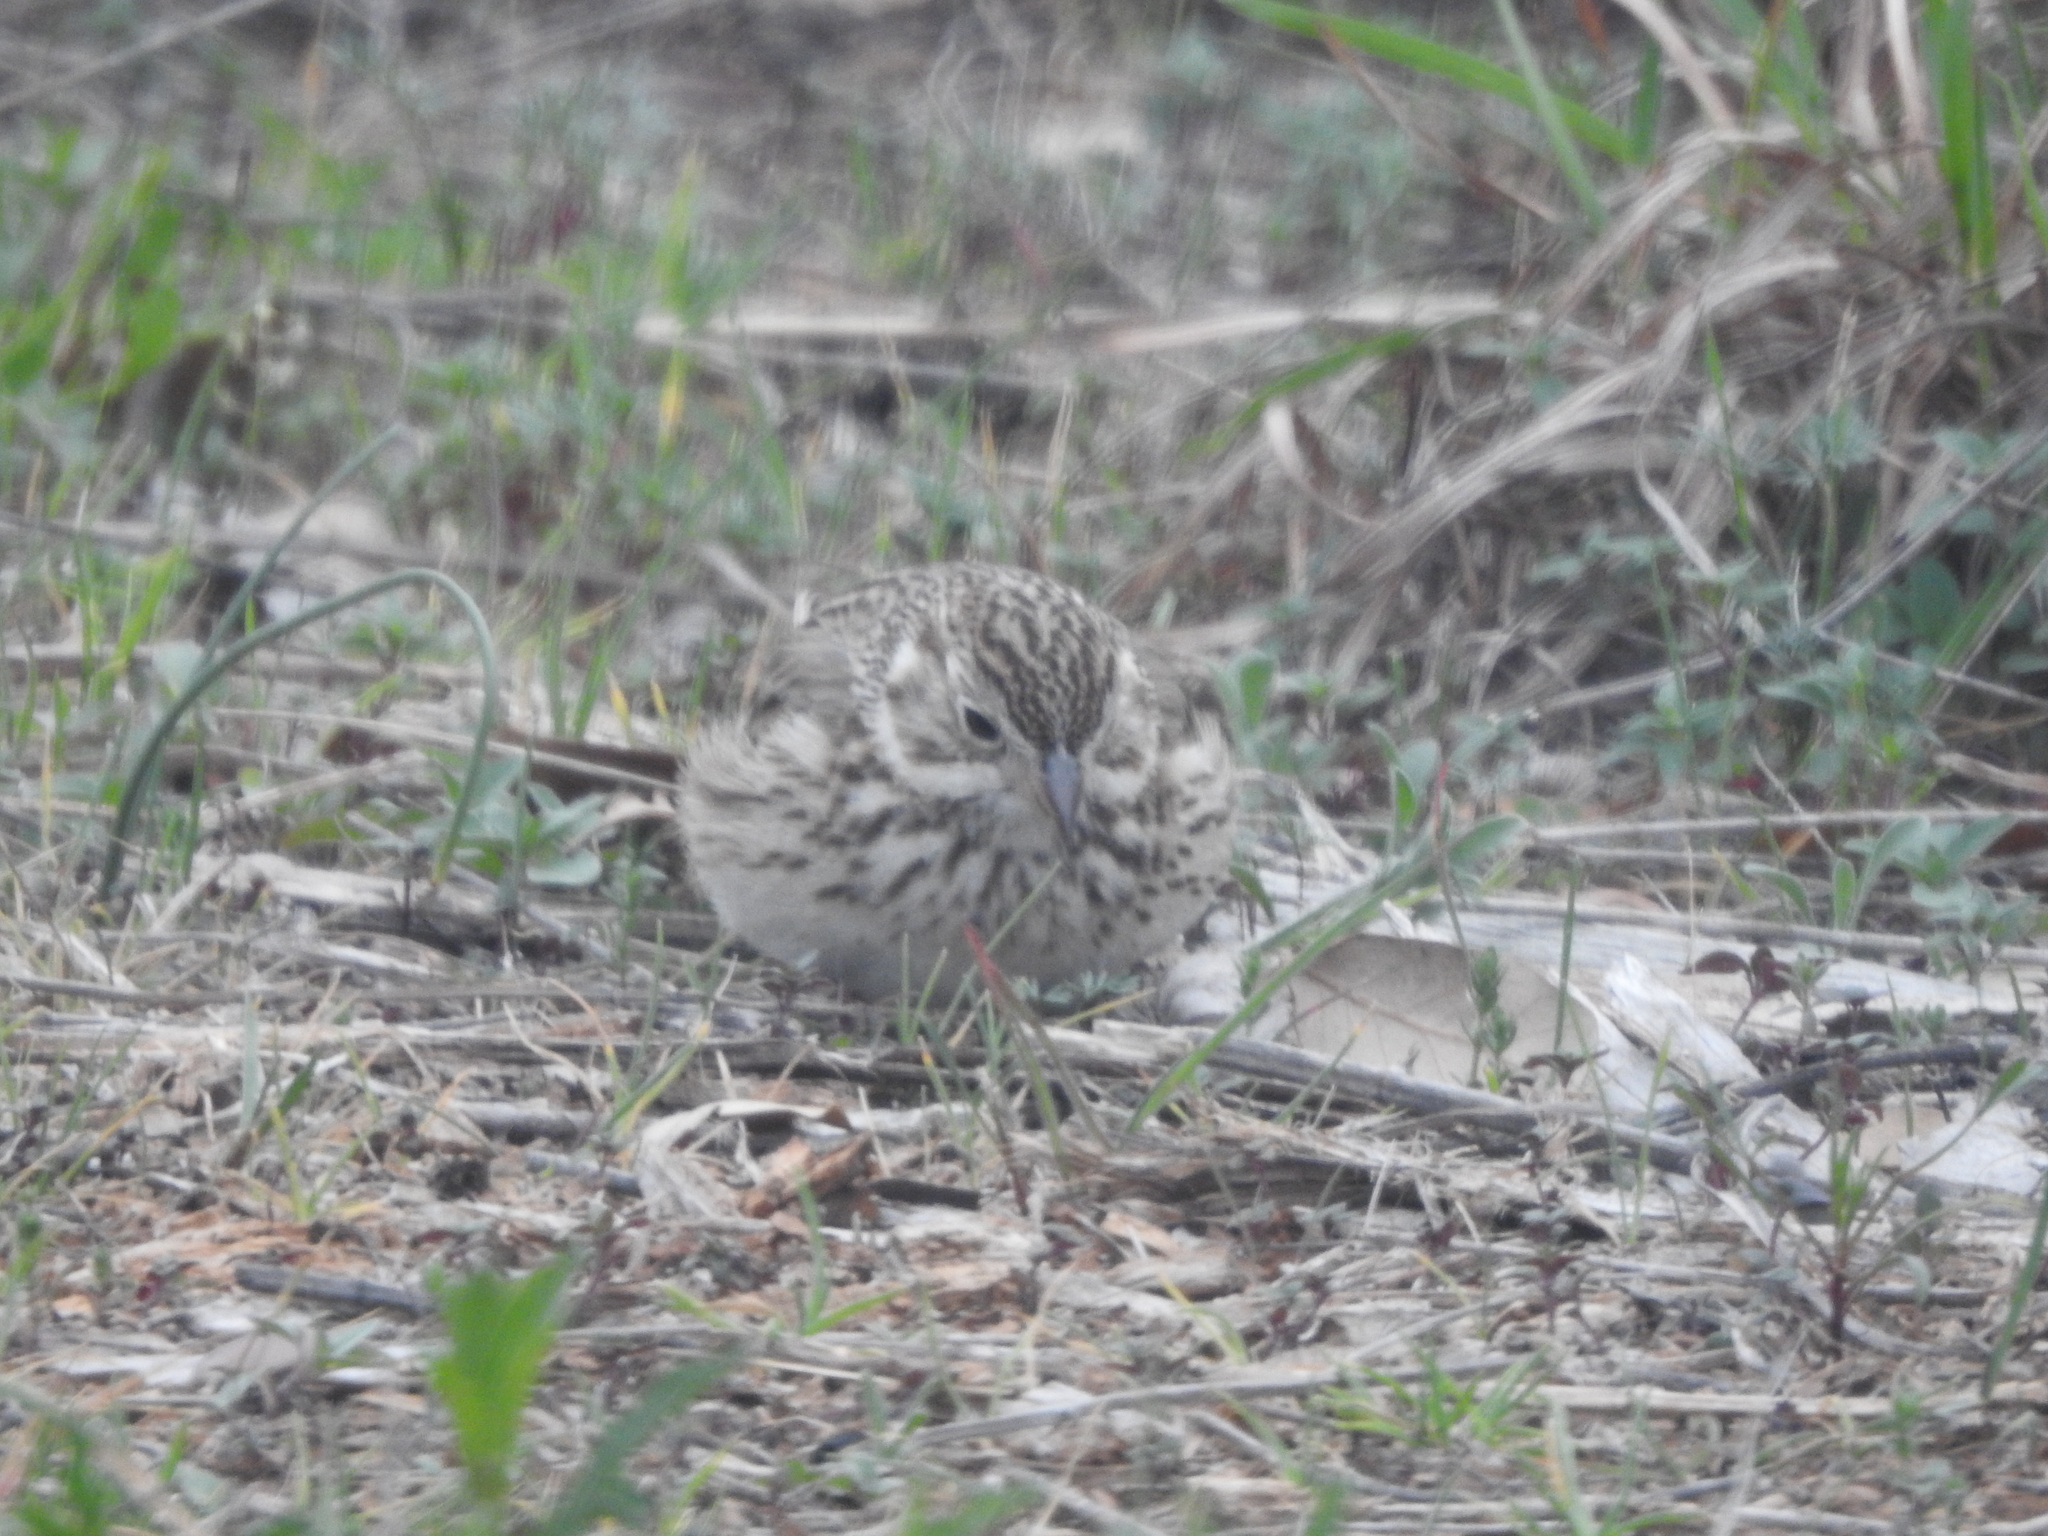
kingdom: Animalia
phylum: Chordata
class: Aves
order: Passeriformes
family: Passerellidae
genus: Pooecetes
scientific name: Pooecetes gramineus
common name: Vesper sparrow
